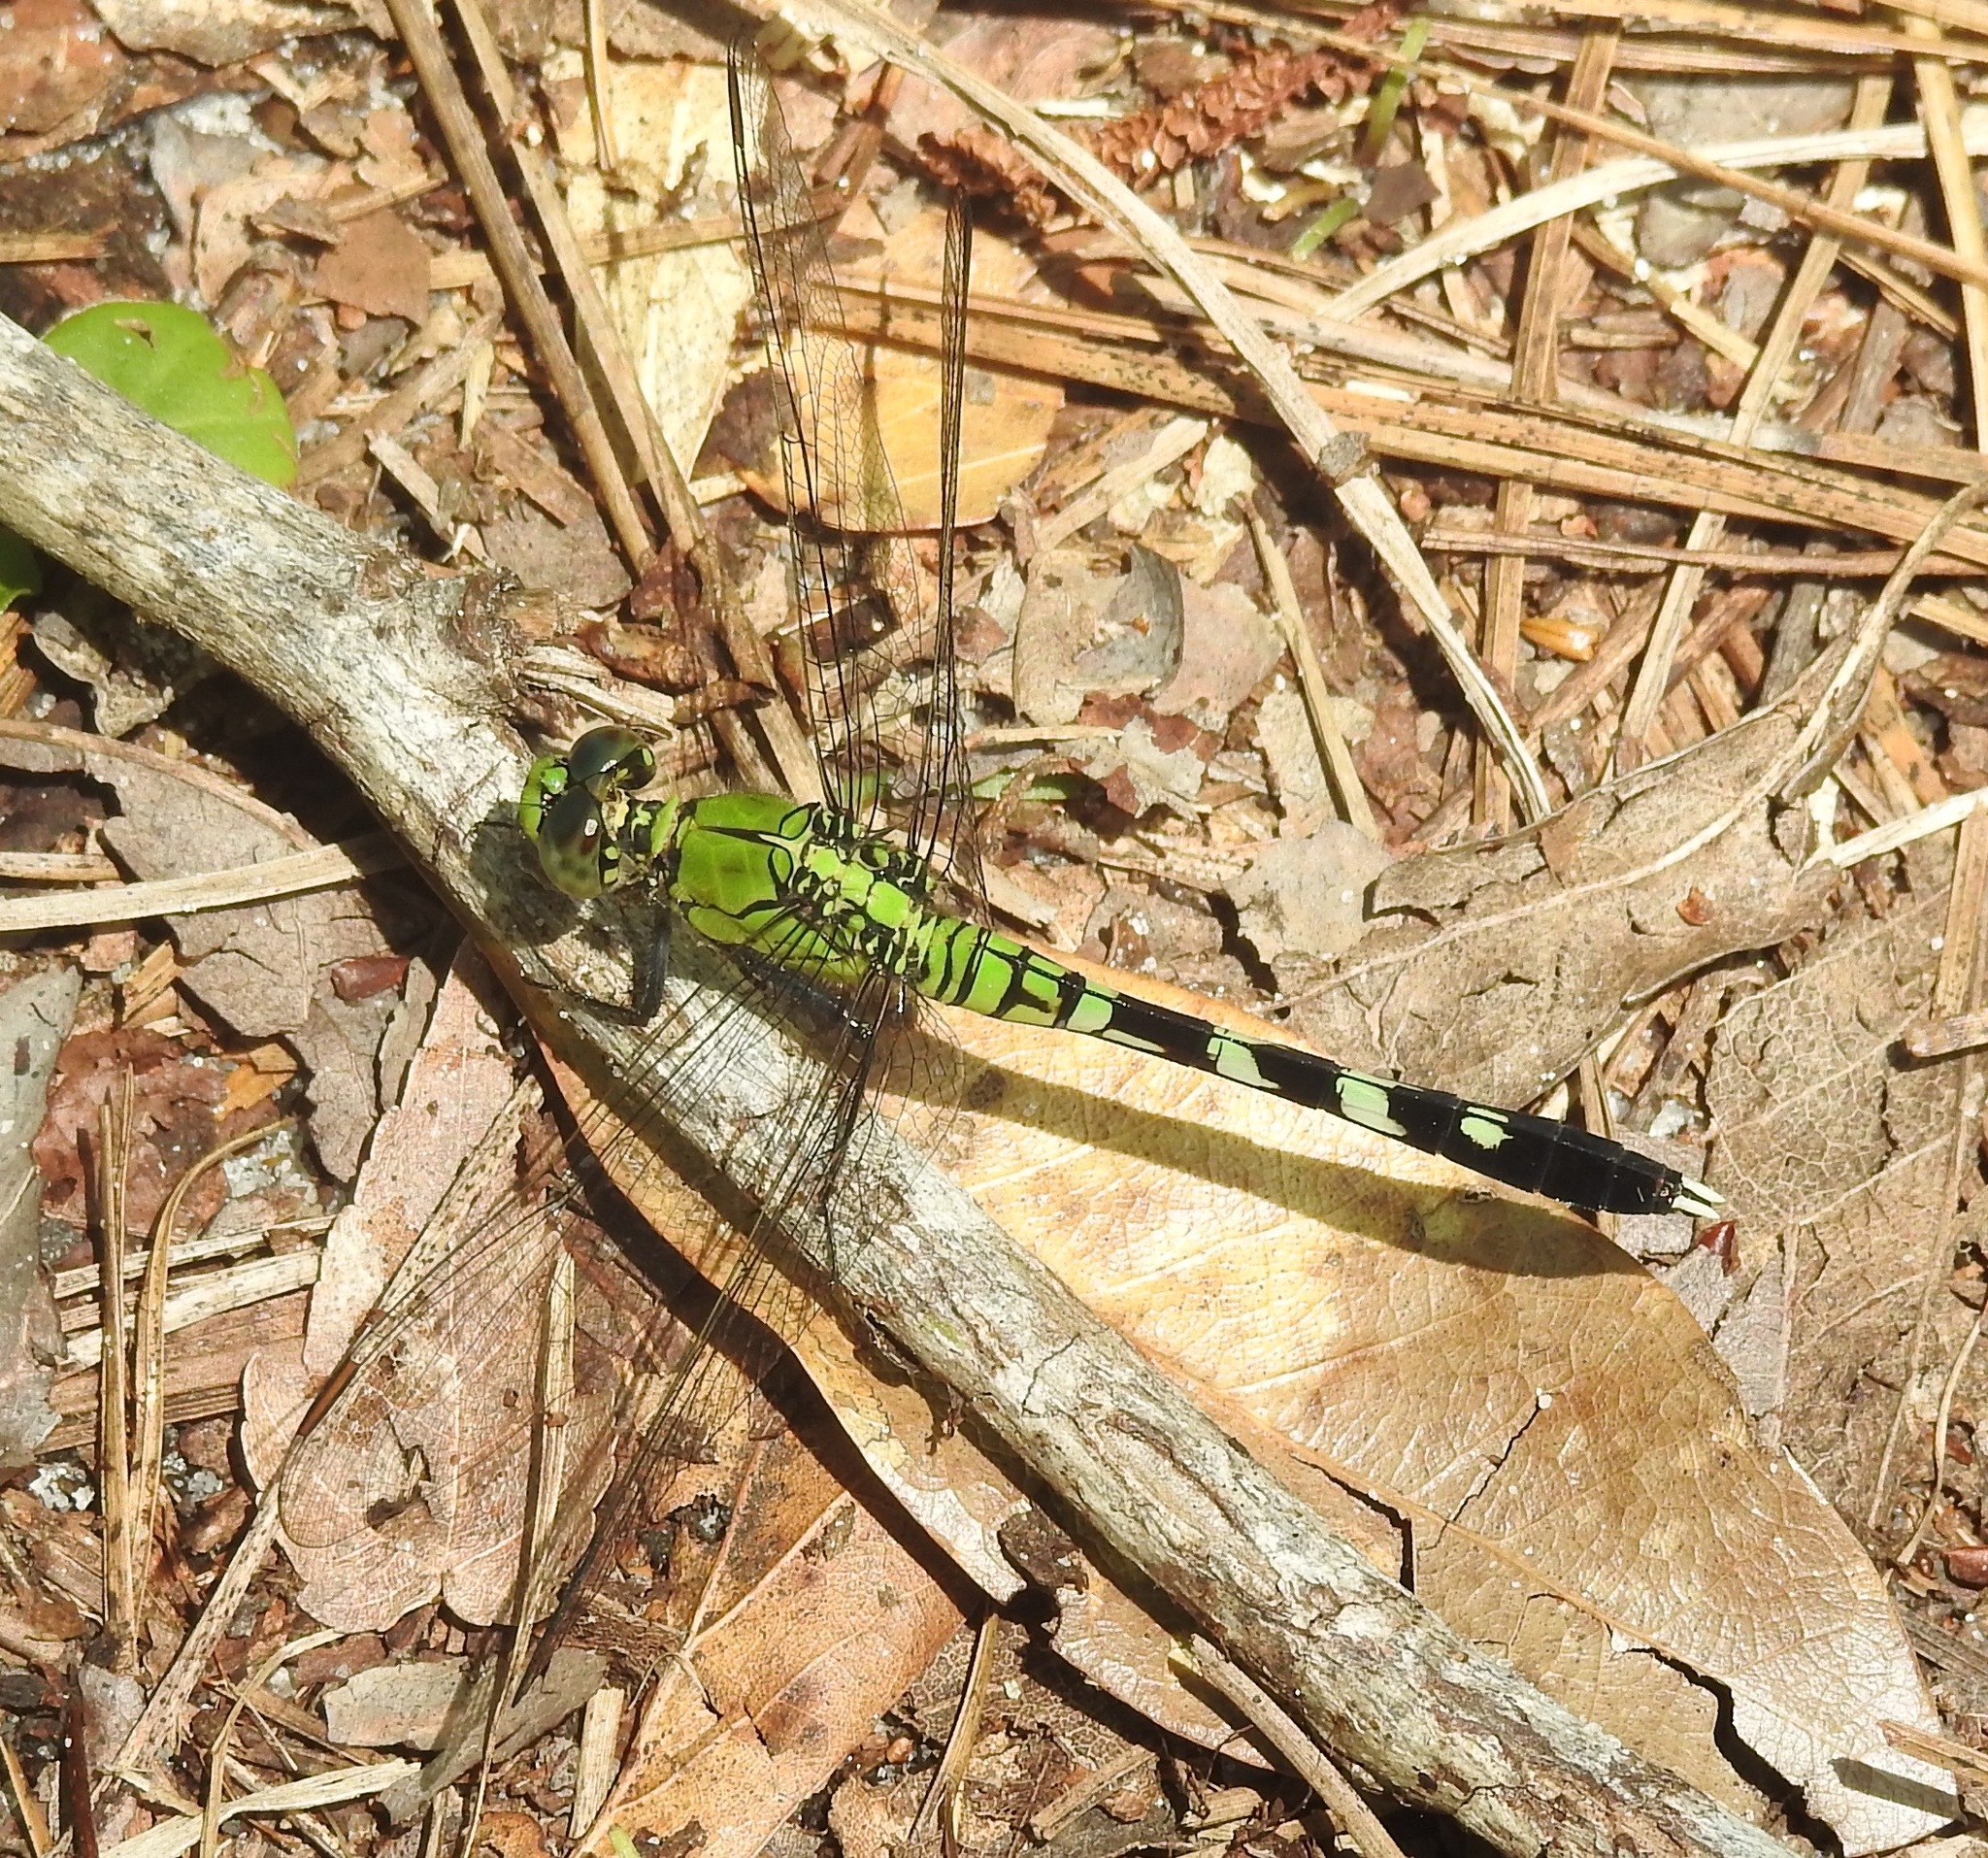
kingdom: Animalia
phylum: Arthropoda
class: Insecta
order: Odonata
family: Libellulidae
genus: Erythemis
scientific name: Erythemis simplicicollis
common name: Eastern pondhawk
